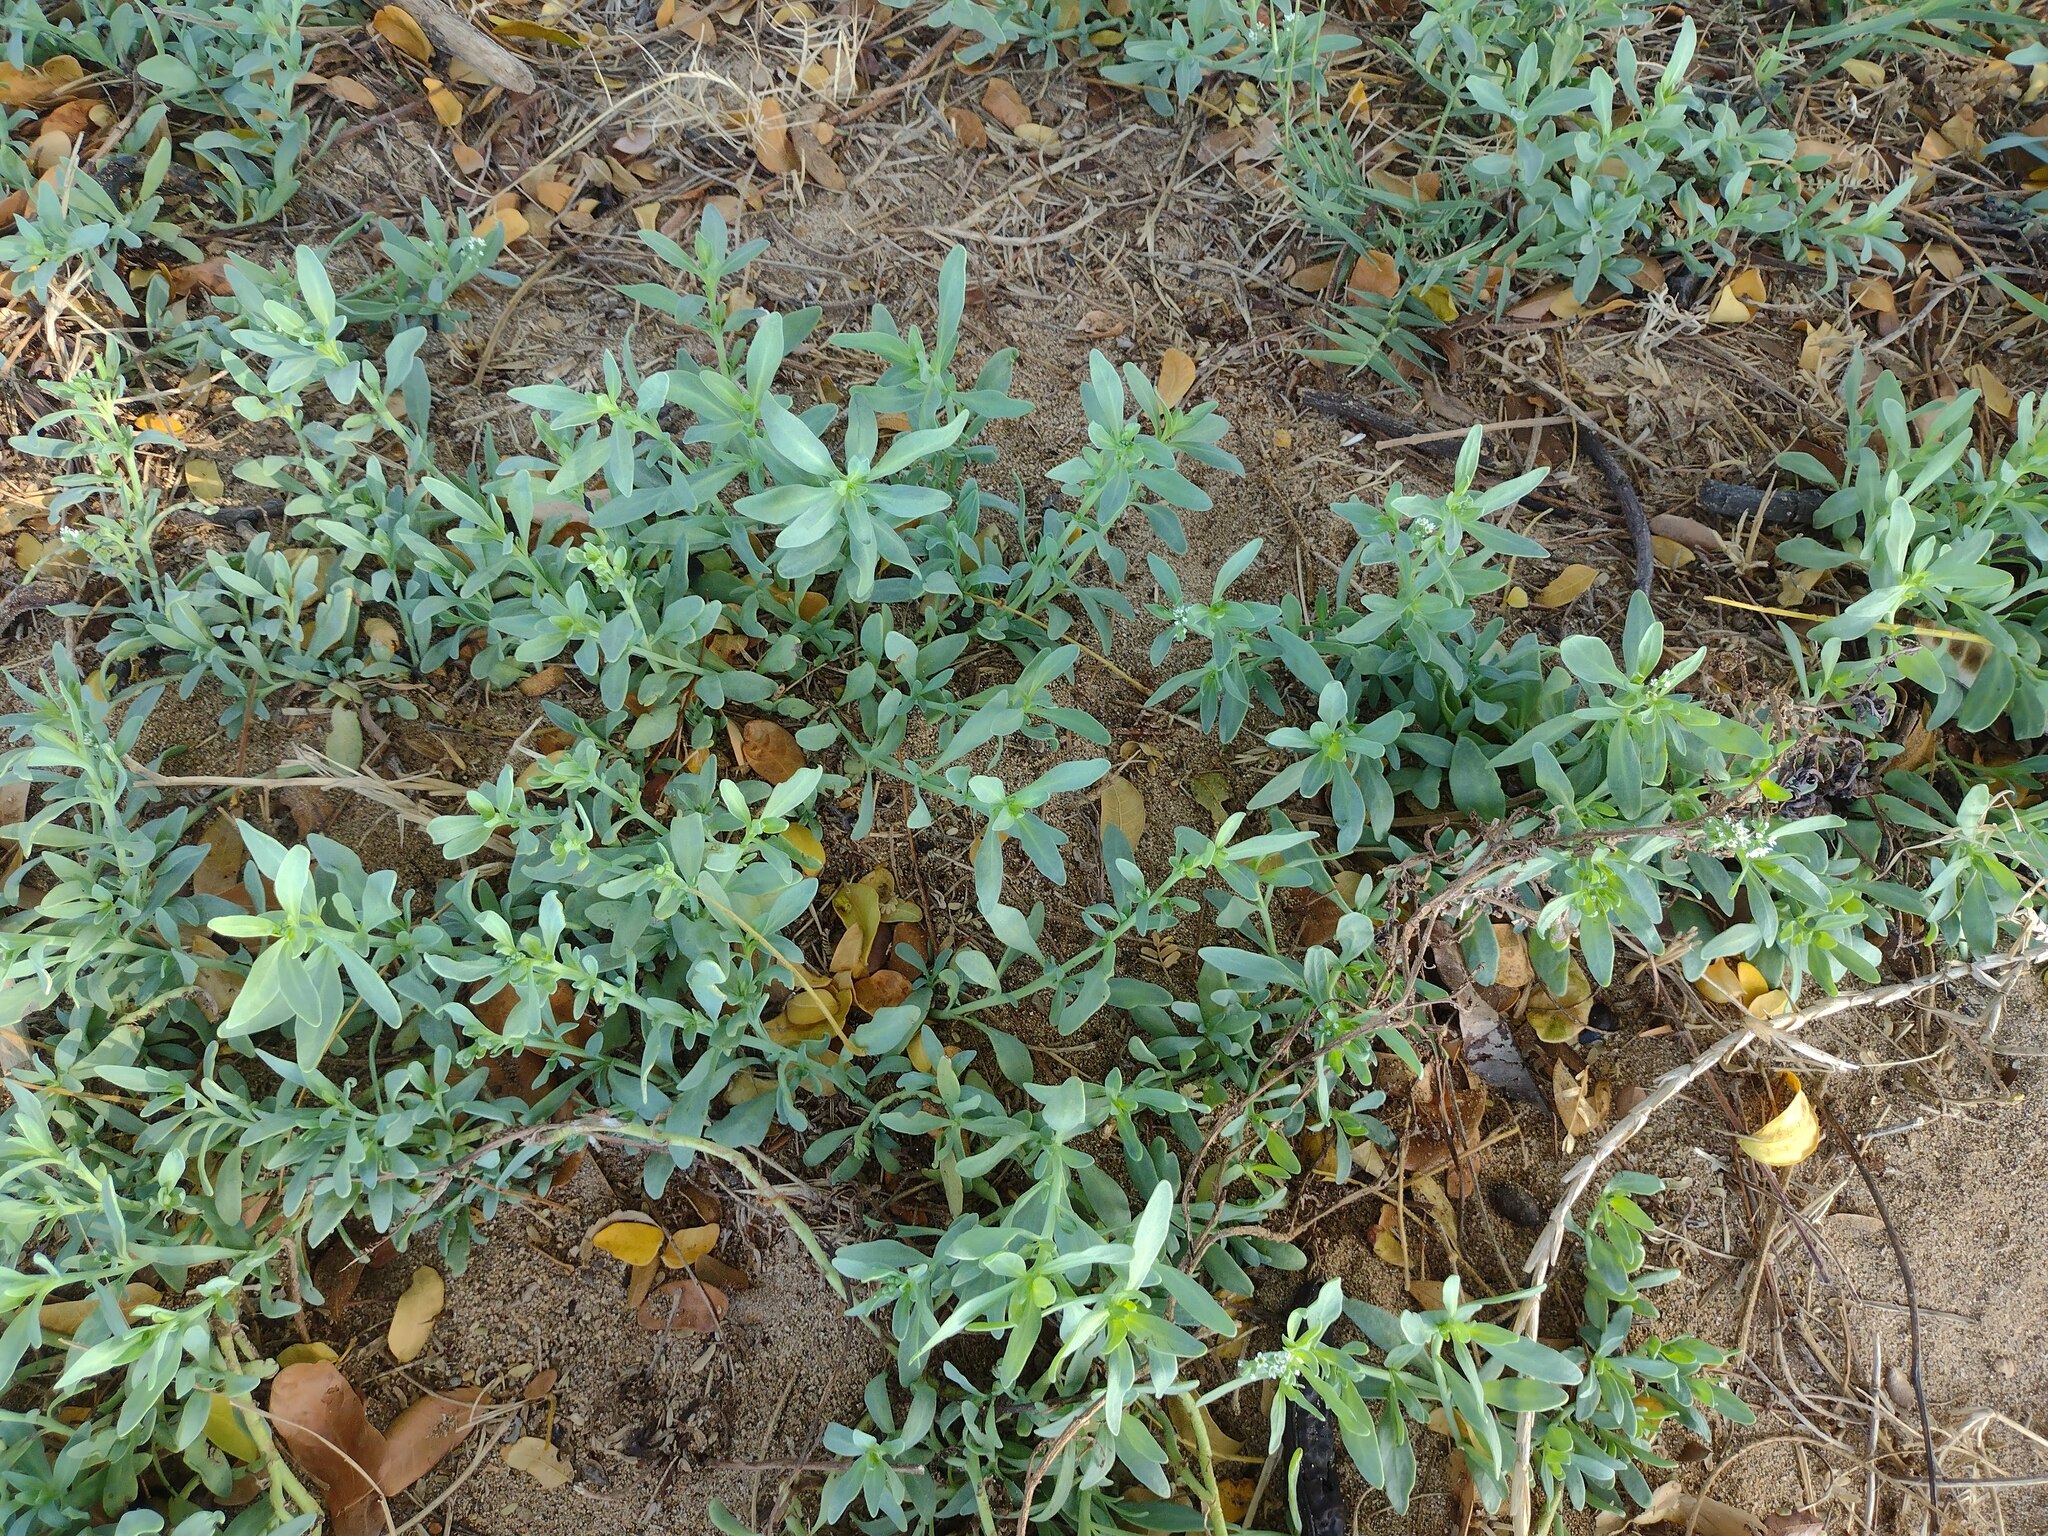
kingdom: Plantae
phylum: Tracheophyta
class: Magnoliopsida
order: Boraginales
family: Heliotropiaceae
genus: Heliotropium
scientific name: Heliotropium curassavicum
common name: Seaside heliotrope
